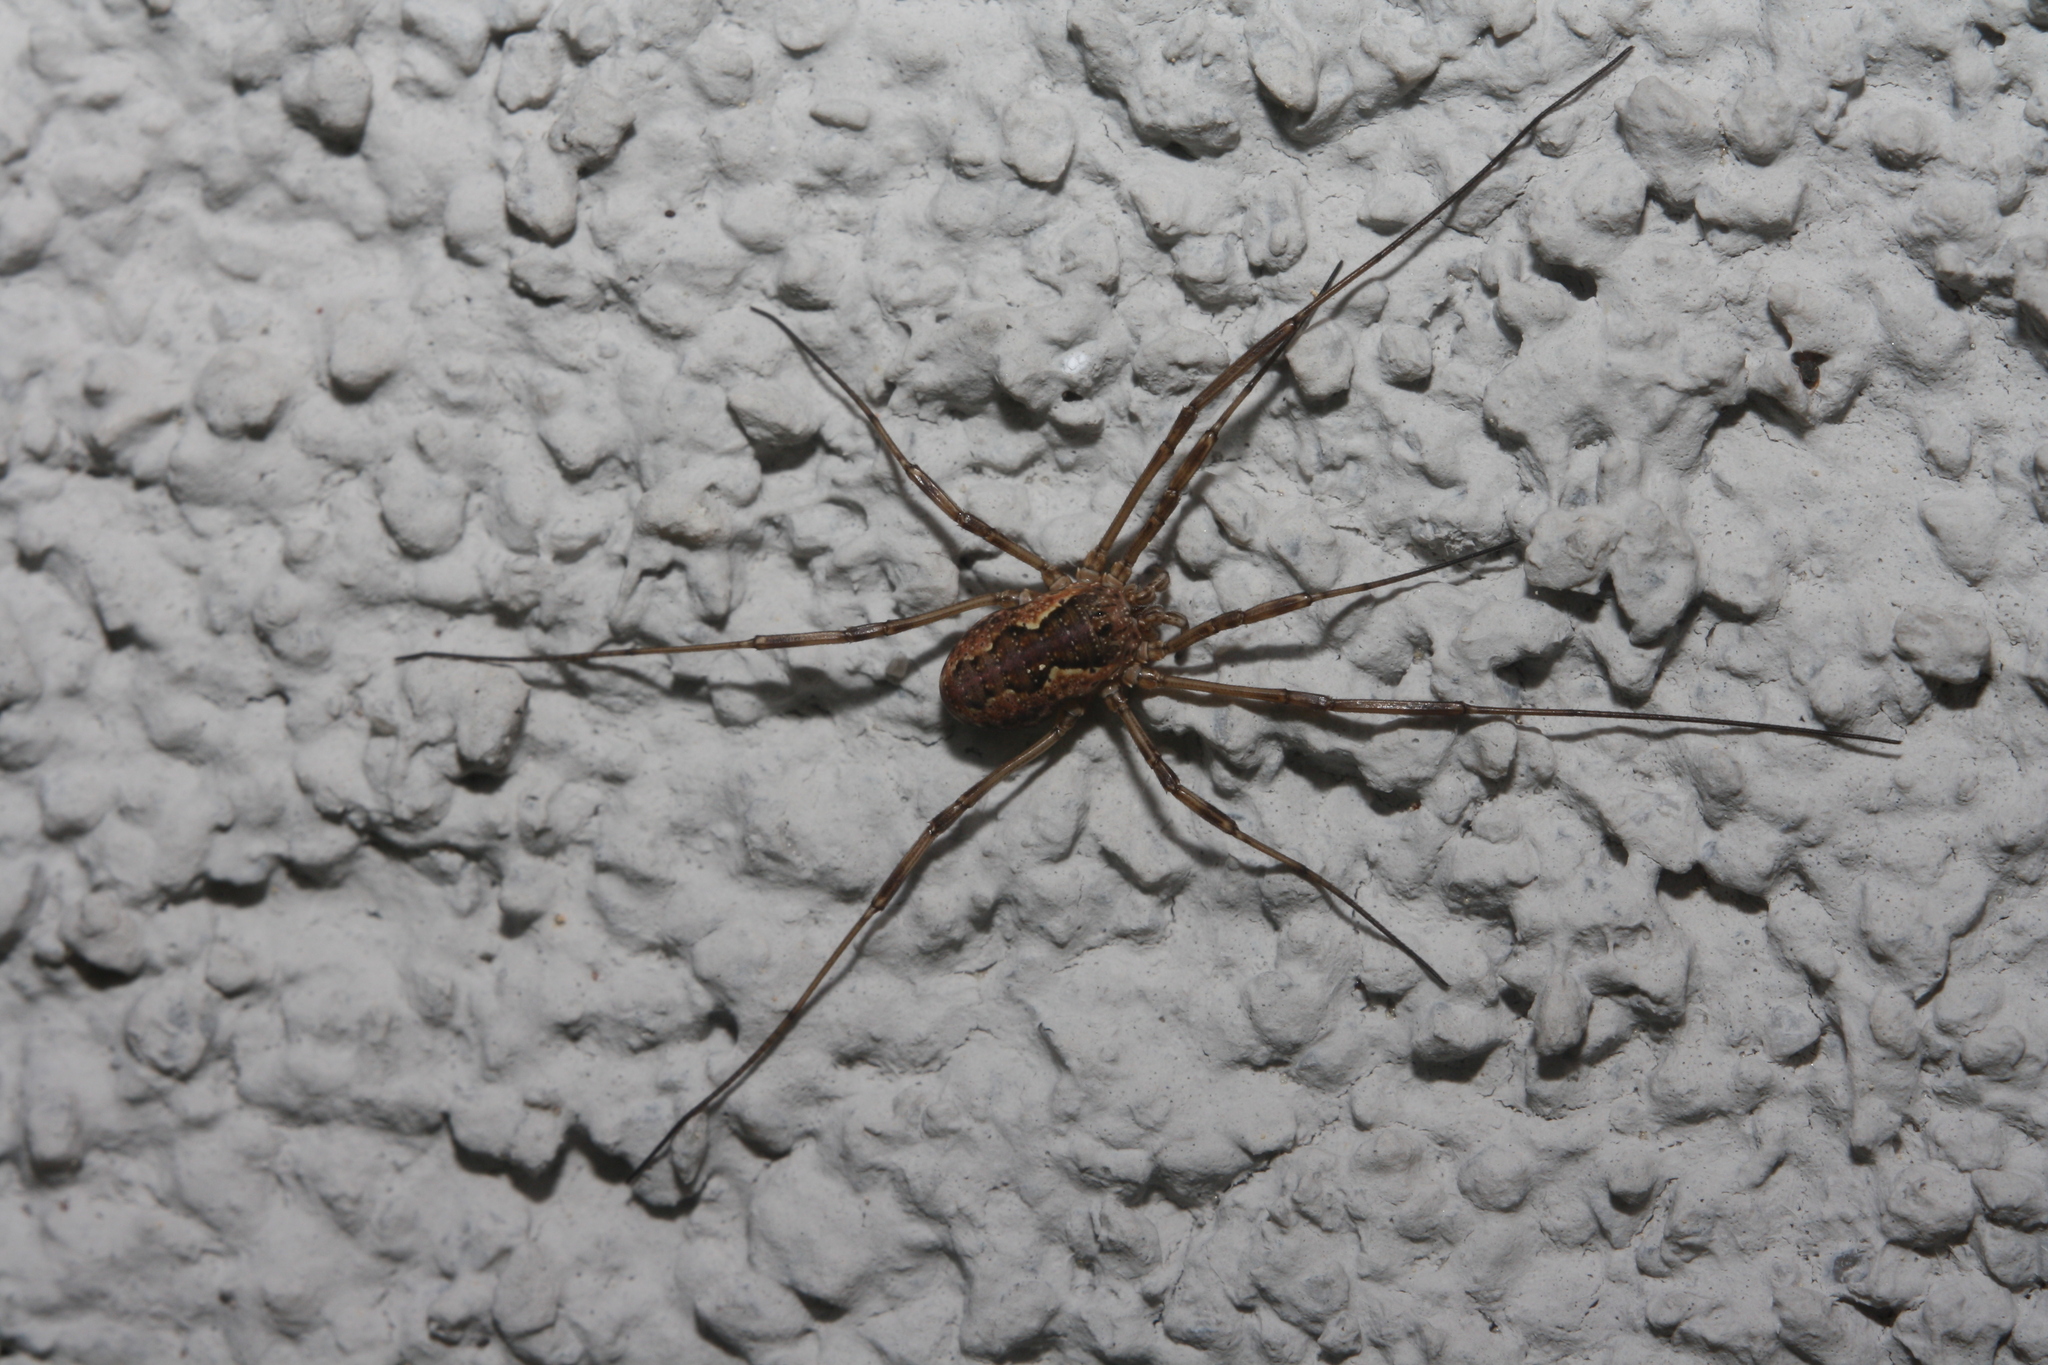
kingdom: Animalia
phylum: Arthropoda
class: Arachnida
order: Opiliones
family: Phalangiidae
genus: Mitopus
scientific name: Mitopus morio
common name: Saddleback harvestman
